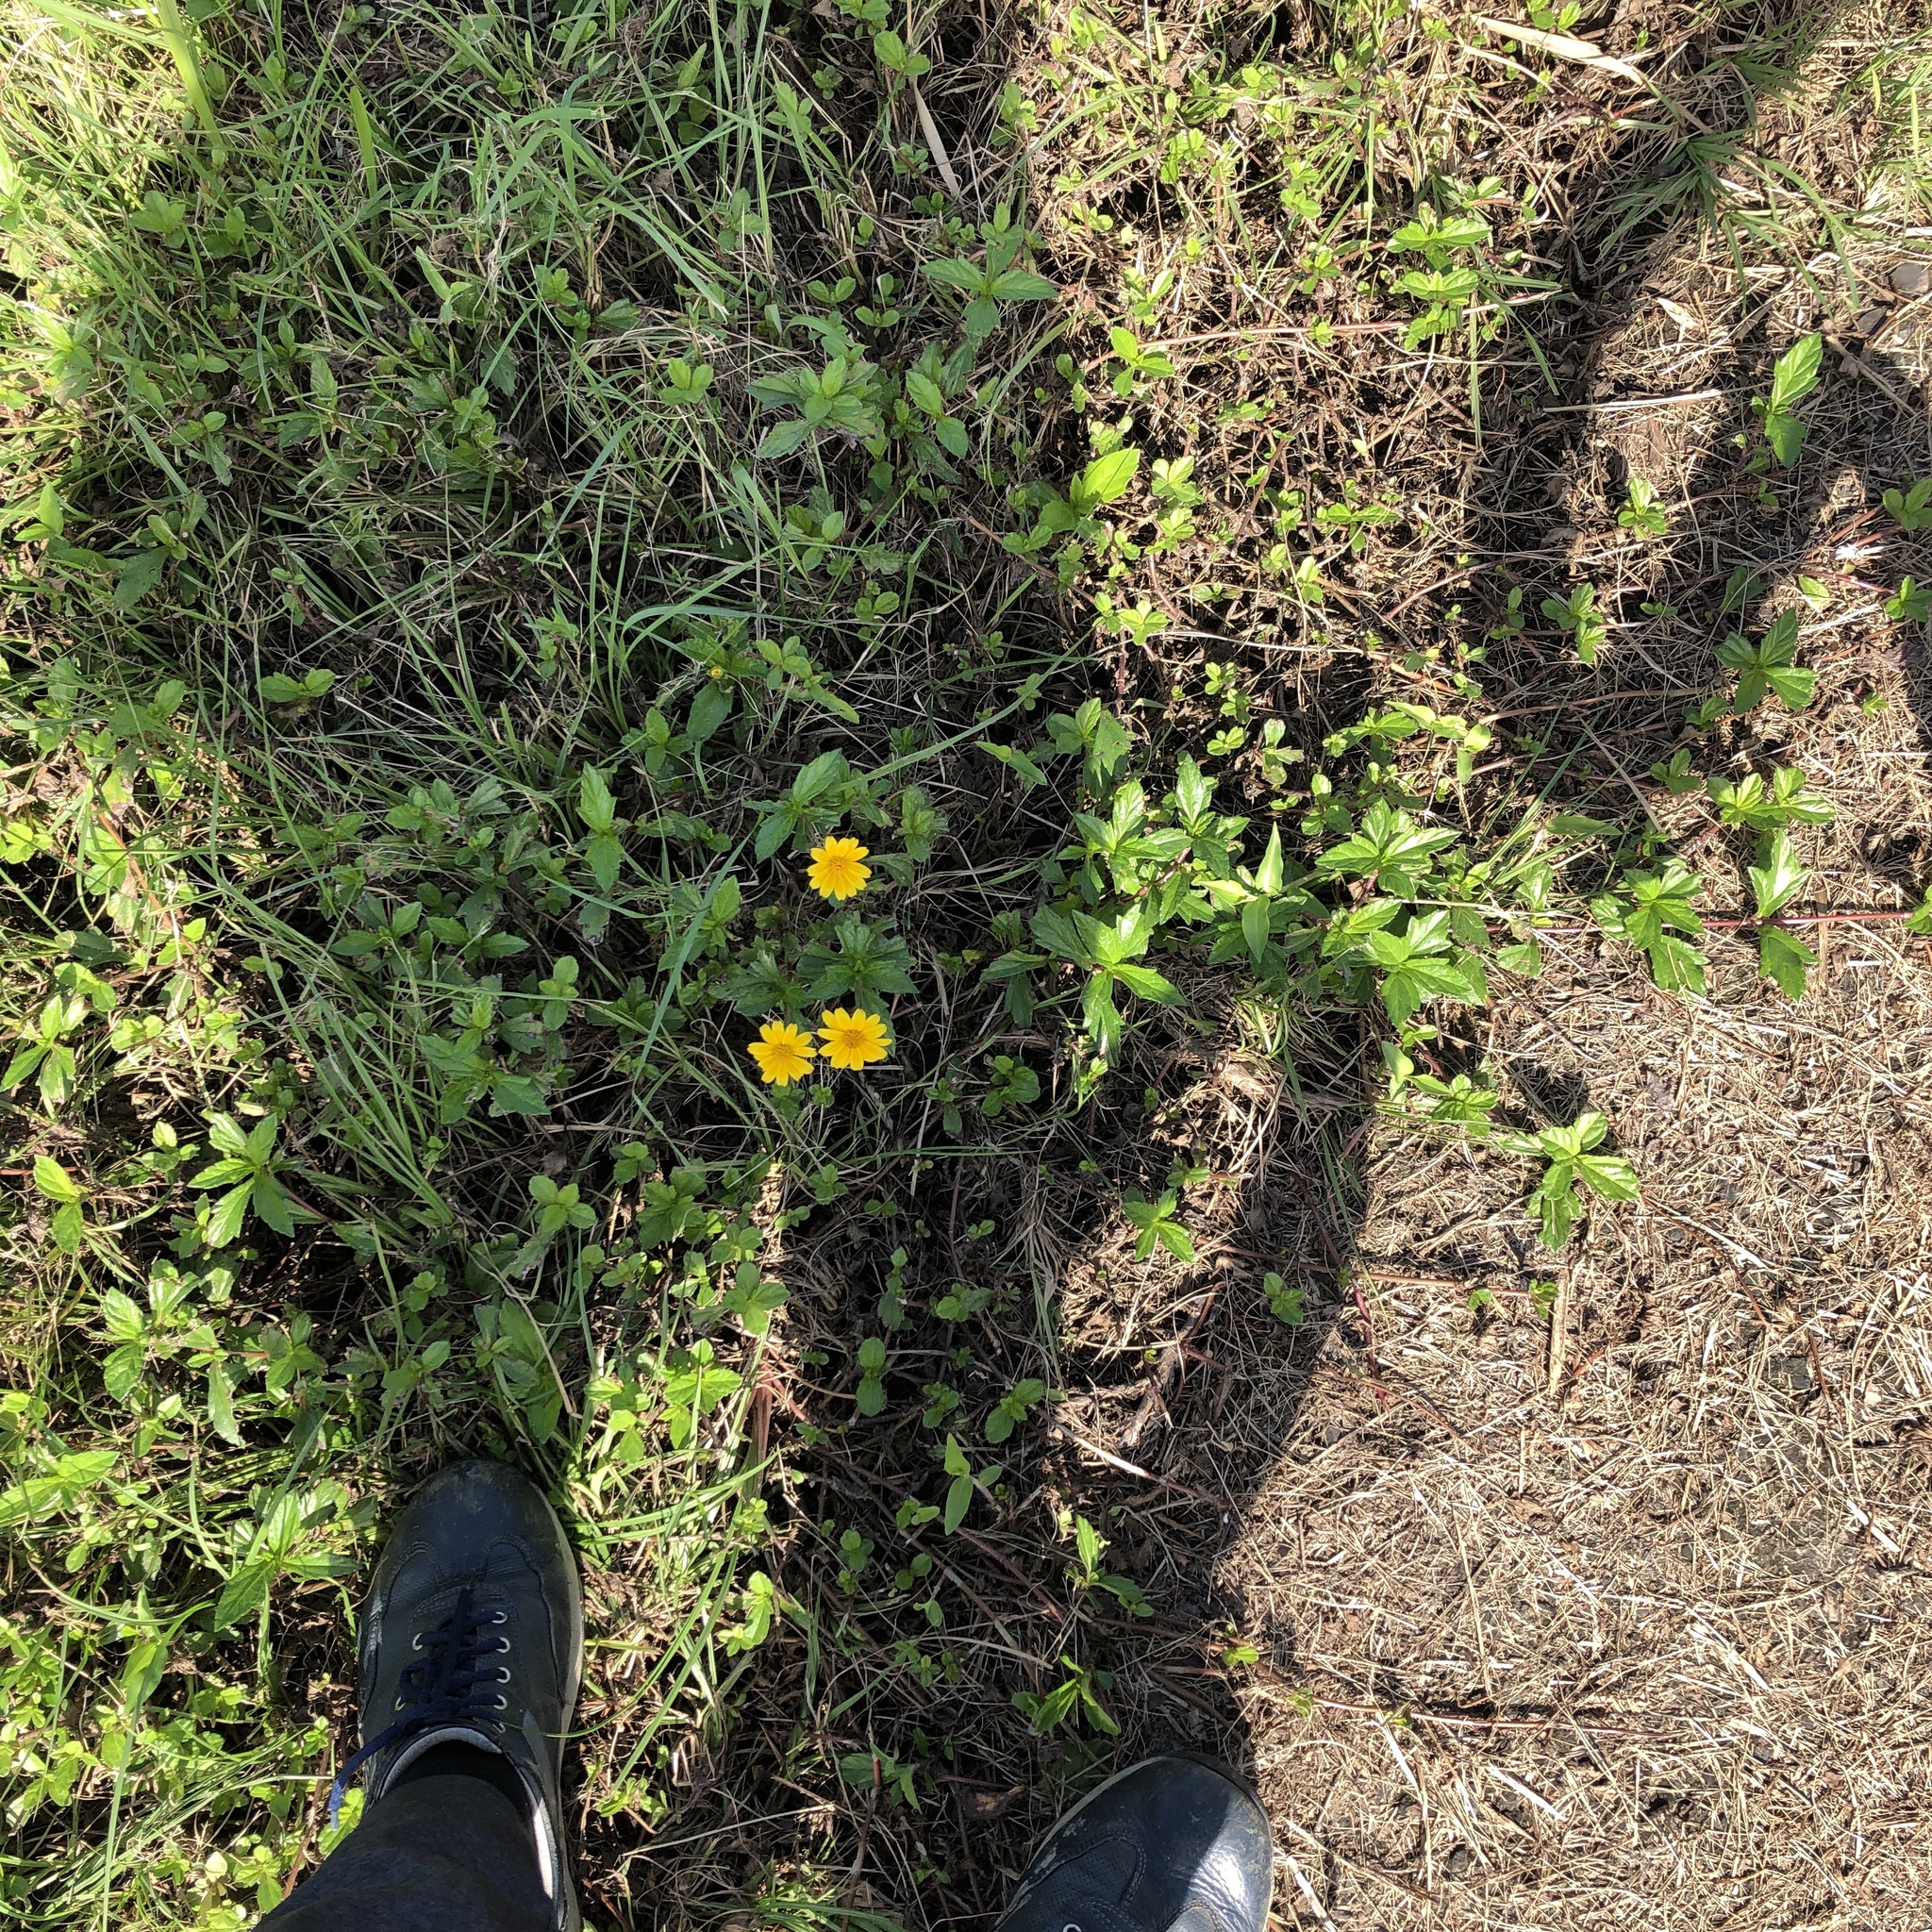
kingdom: Plantae
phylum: Tracheophyta
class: Magnoliopsida
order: Asterales
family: Asteraceae
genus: Sphagneticola
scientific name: Sphagneticola trilobata
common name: Bay biscayne creeping-oxeye
